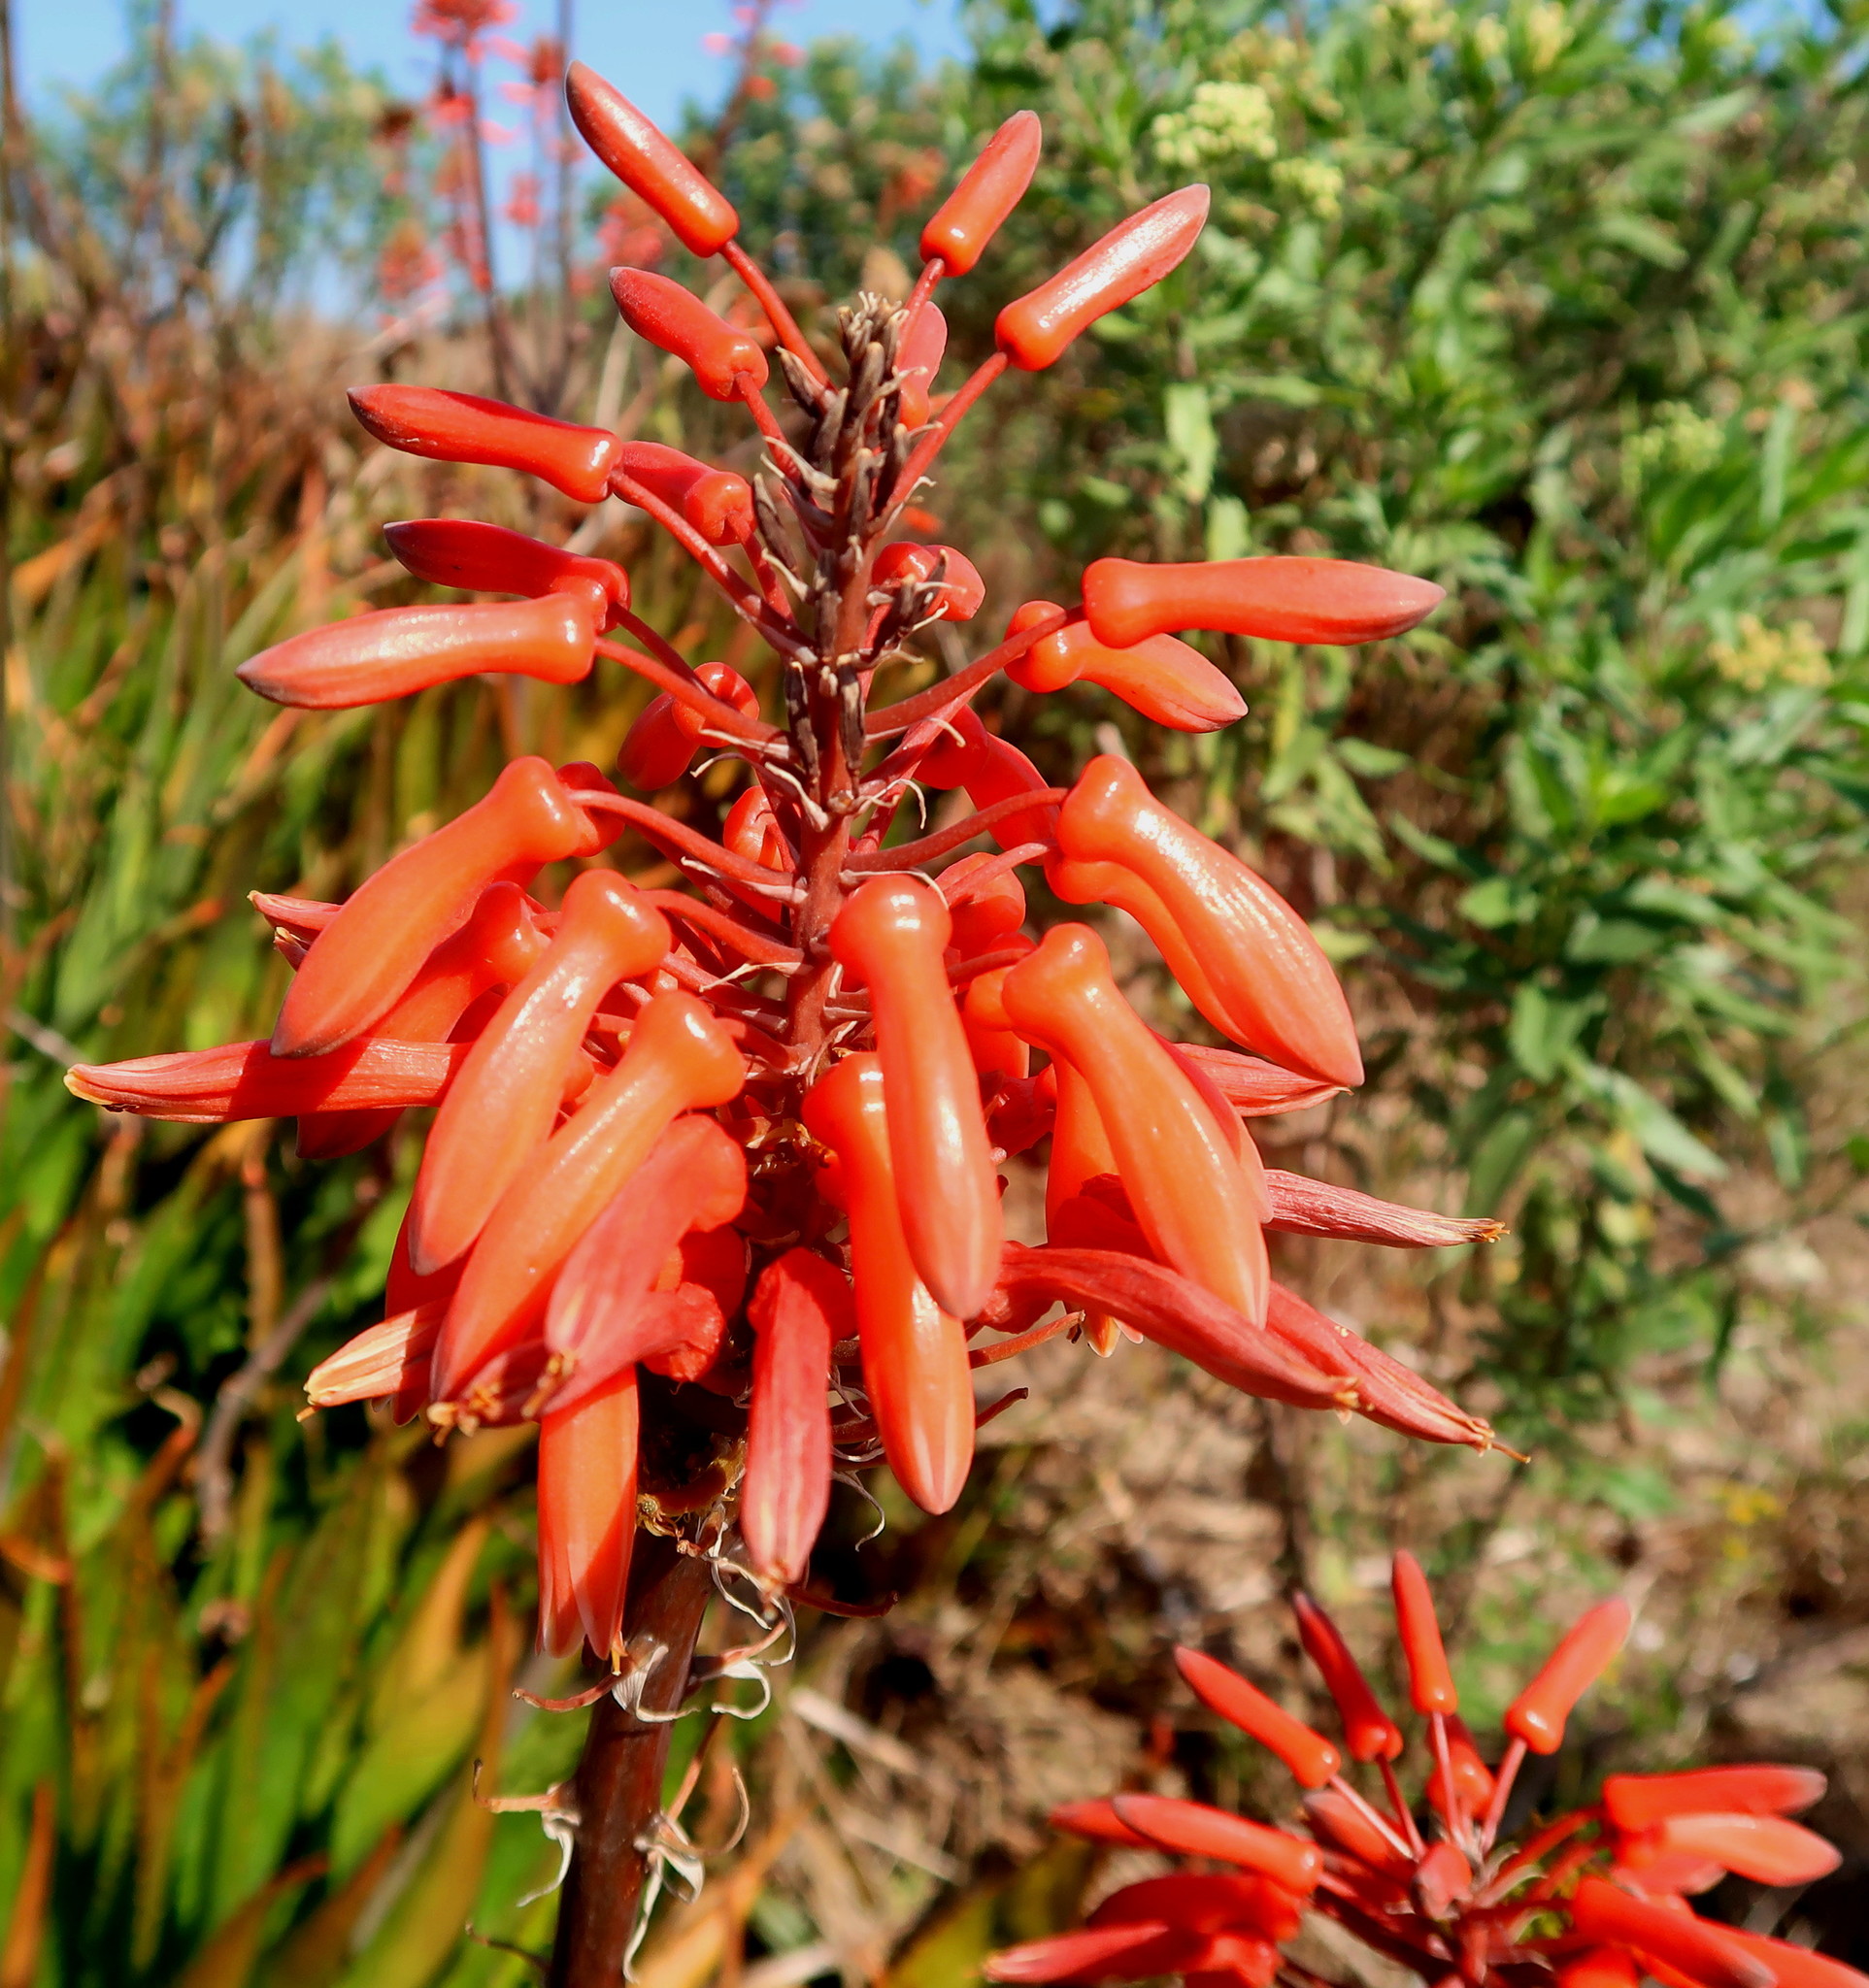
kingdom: Plantae
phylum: Tracheophyta
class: Liliopsida
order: Asparagales
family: Asphodelaceae
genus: Aloe
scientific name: Aloe maculata
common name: Broadleaf aloe
